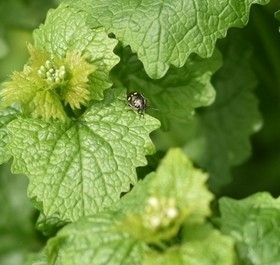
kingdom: Animalia
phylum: Arthropoda
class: Insecta
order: Hemiptera
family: Pentatomidae
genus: Eurydema
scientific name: Eurydema oleracea
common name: Cabbage bug
